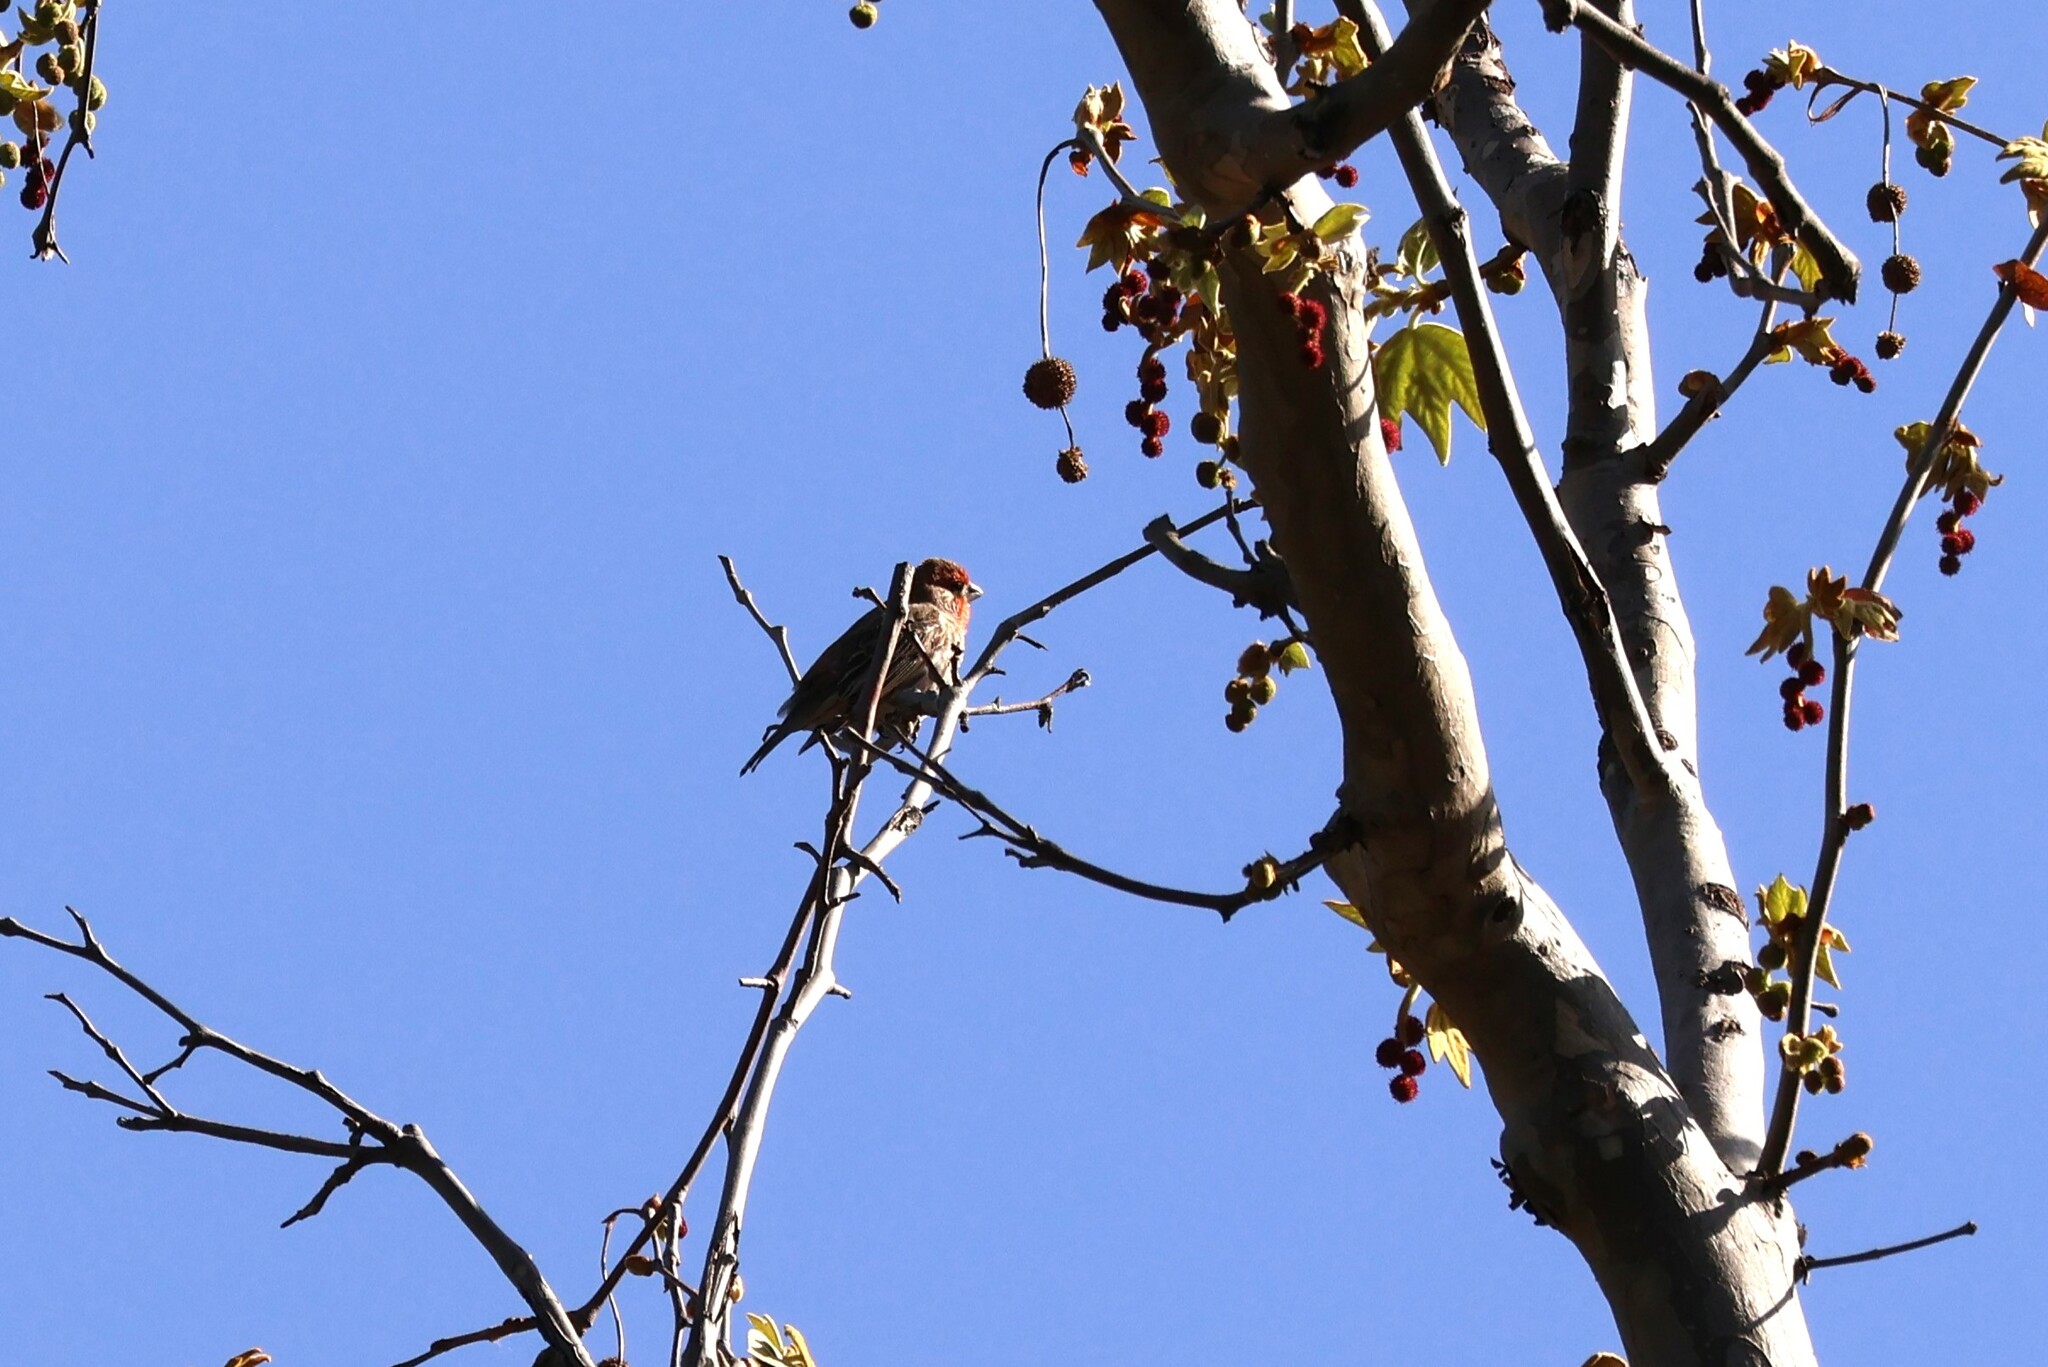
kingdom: Animalia
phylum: Chordata
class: Aves
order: Passeriformes
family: Fringillidae
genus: Haemorhous
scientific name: Haemorhous mexicanus
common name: House finch
